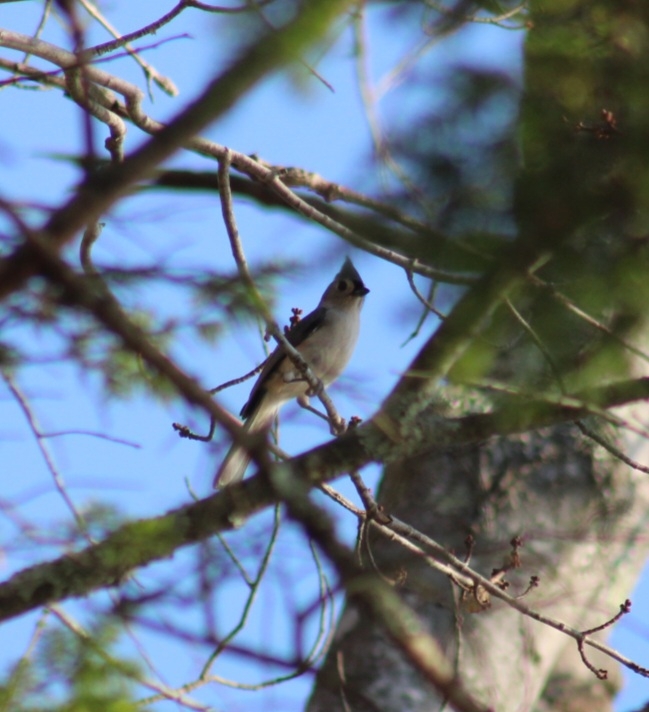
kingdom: Animalia
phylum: Chordata
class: Aves
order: Passeriformes
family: Paridae
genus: Baeolophus
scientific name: Baeolophus bicolor
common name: Tufted titmouse
